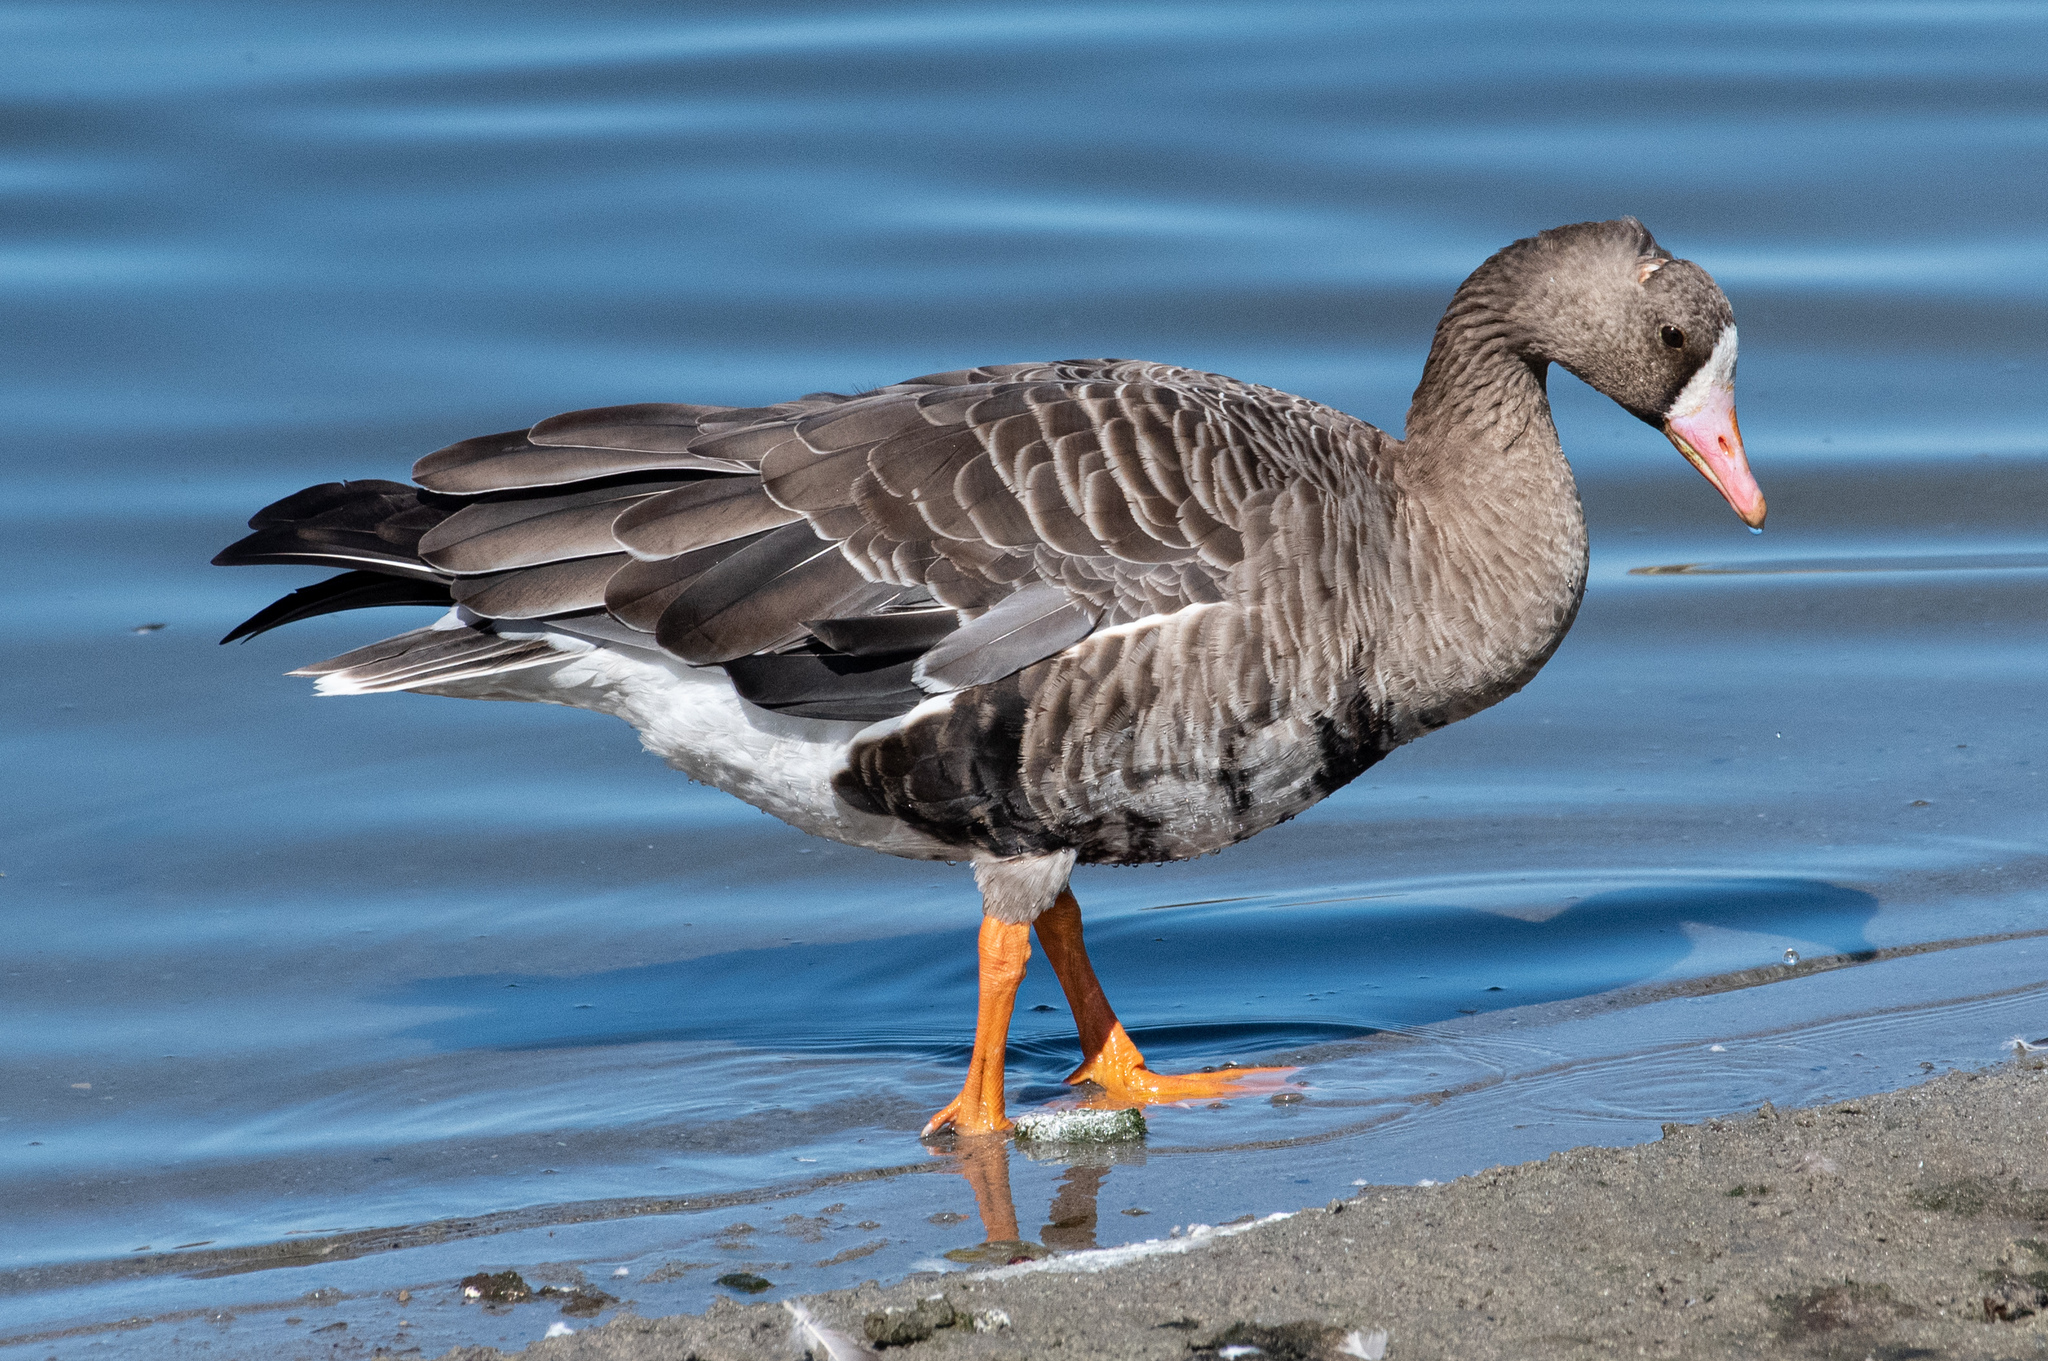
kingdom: Animalia
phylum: Chordata
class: Aves
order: Anseriformes
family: Anatidae
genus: Anser
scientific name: Anser albifrons
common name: Greater white-fronted goose
